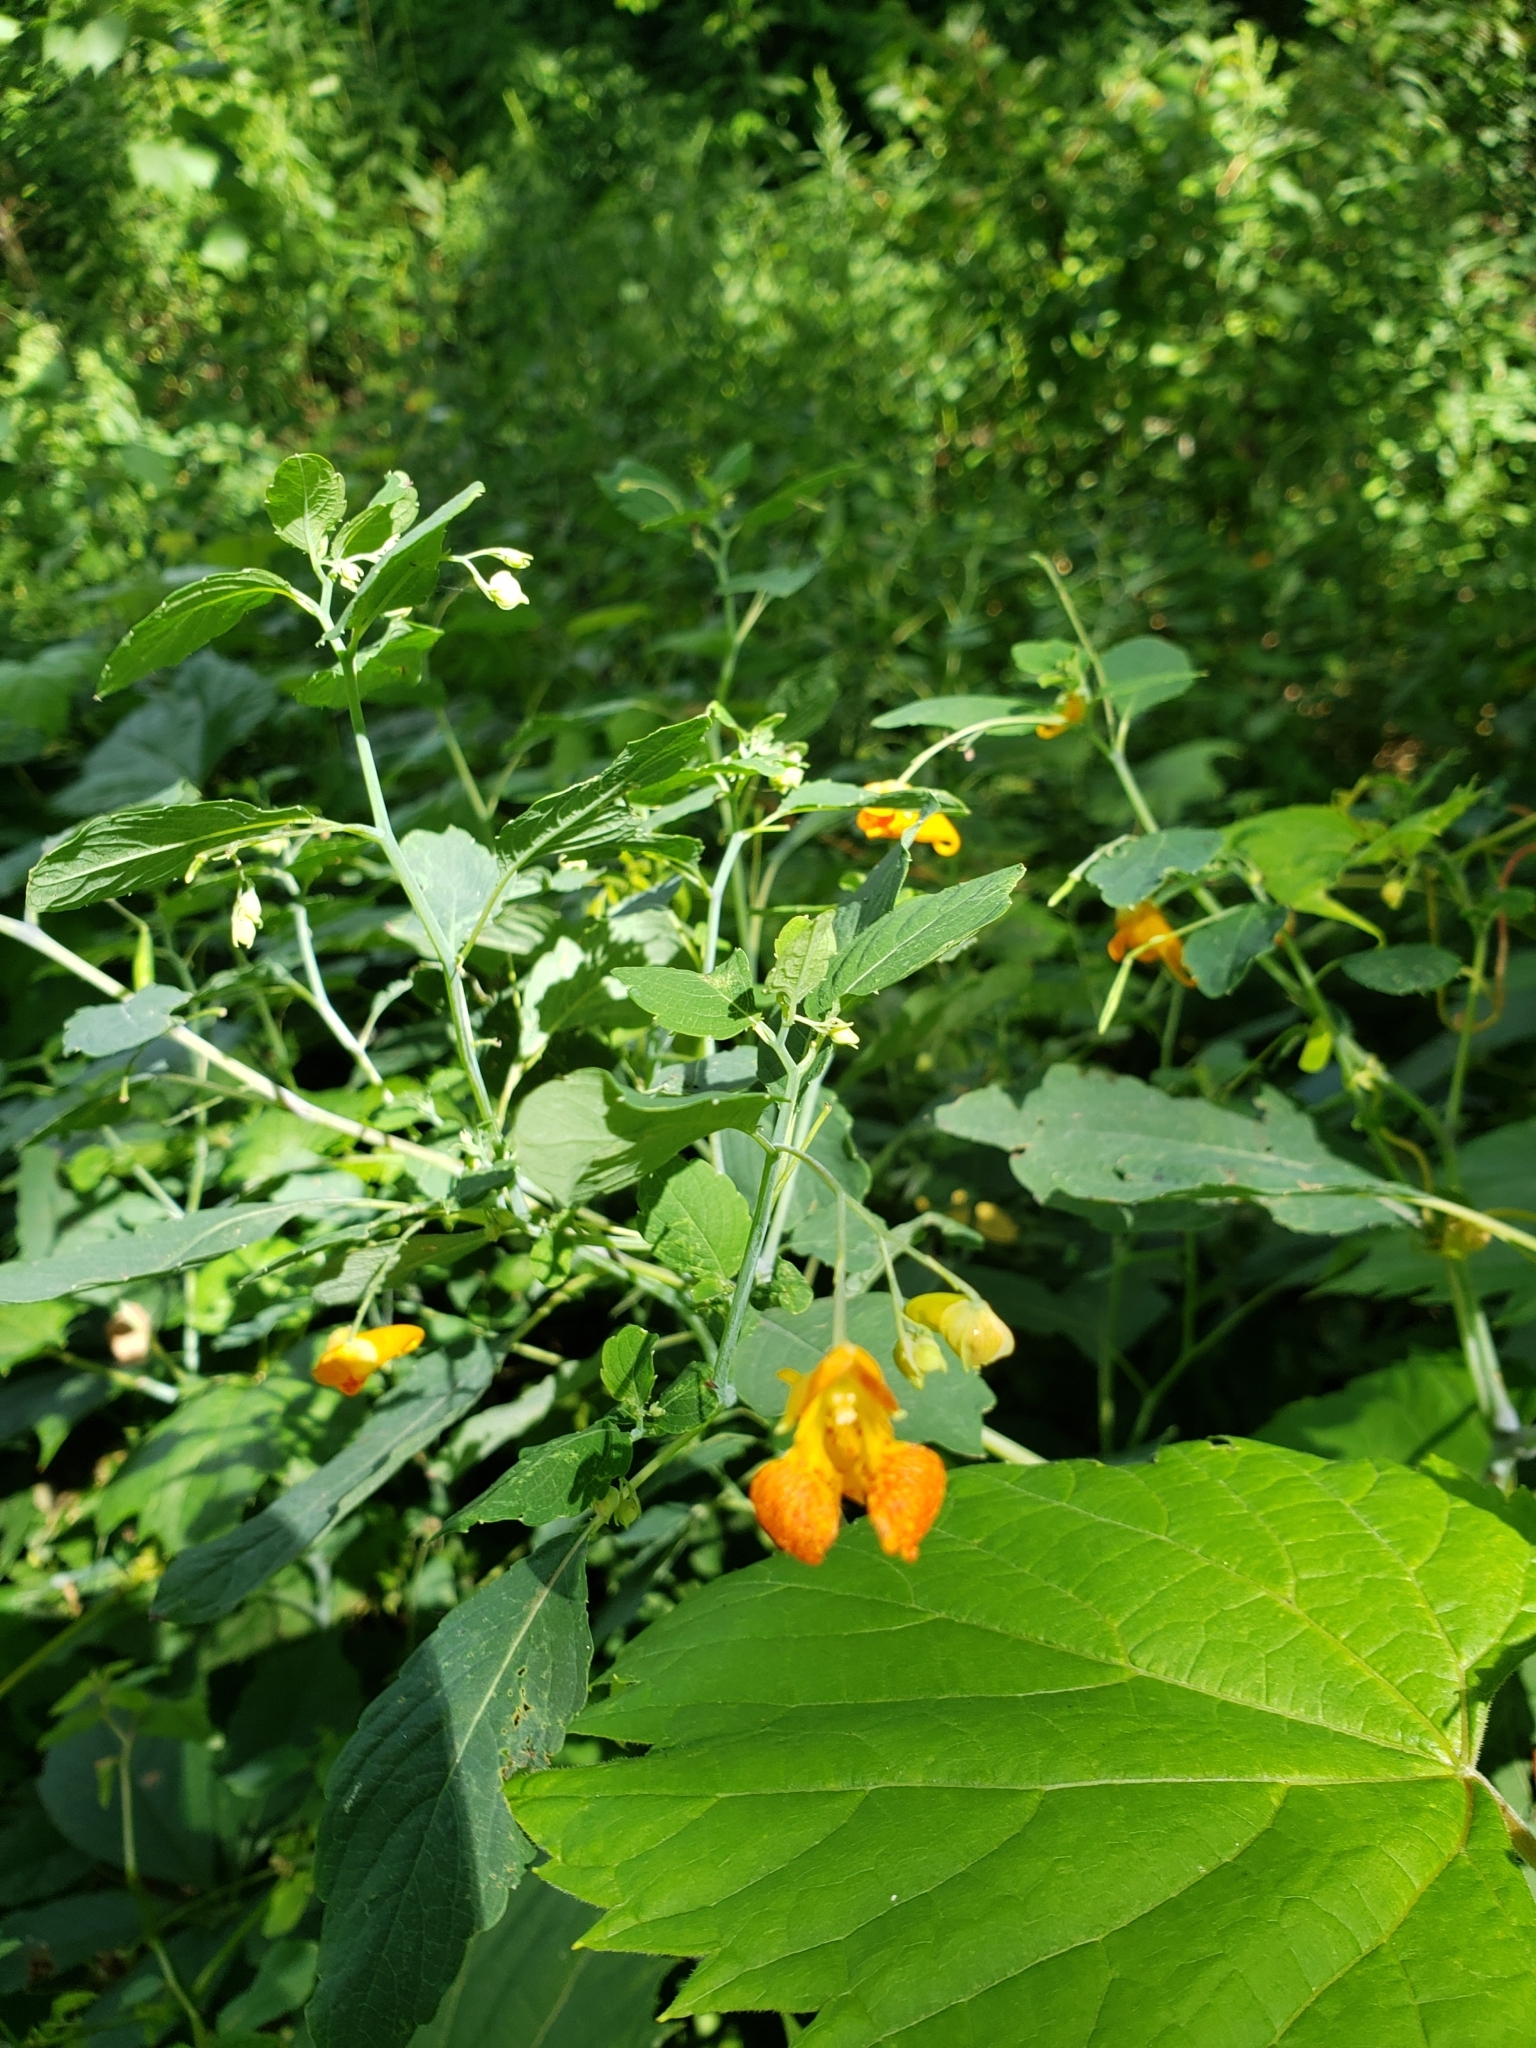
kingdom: Plantae
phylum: Tracheophyta
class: Magnoliopsida
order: Ericales
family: Balsaminaceae
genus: Impatiens
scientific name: Impatiens capensis
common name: Orange balsam
